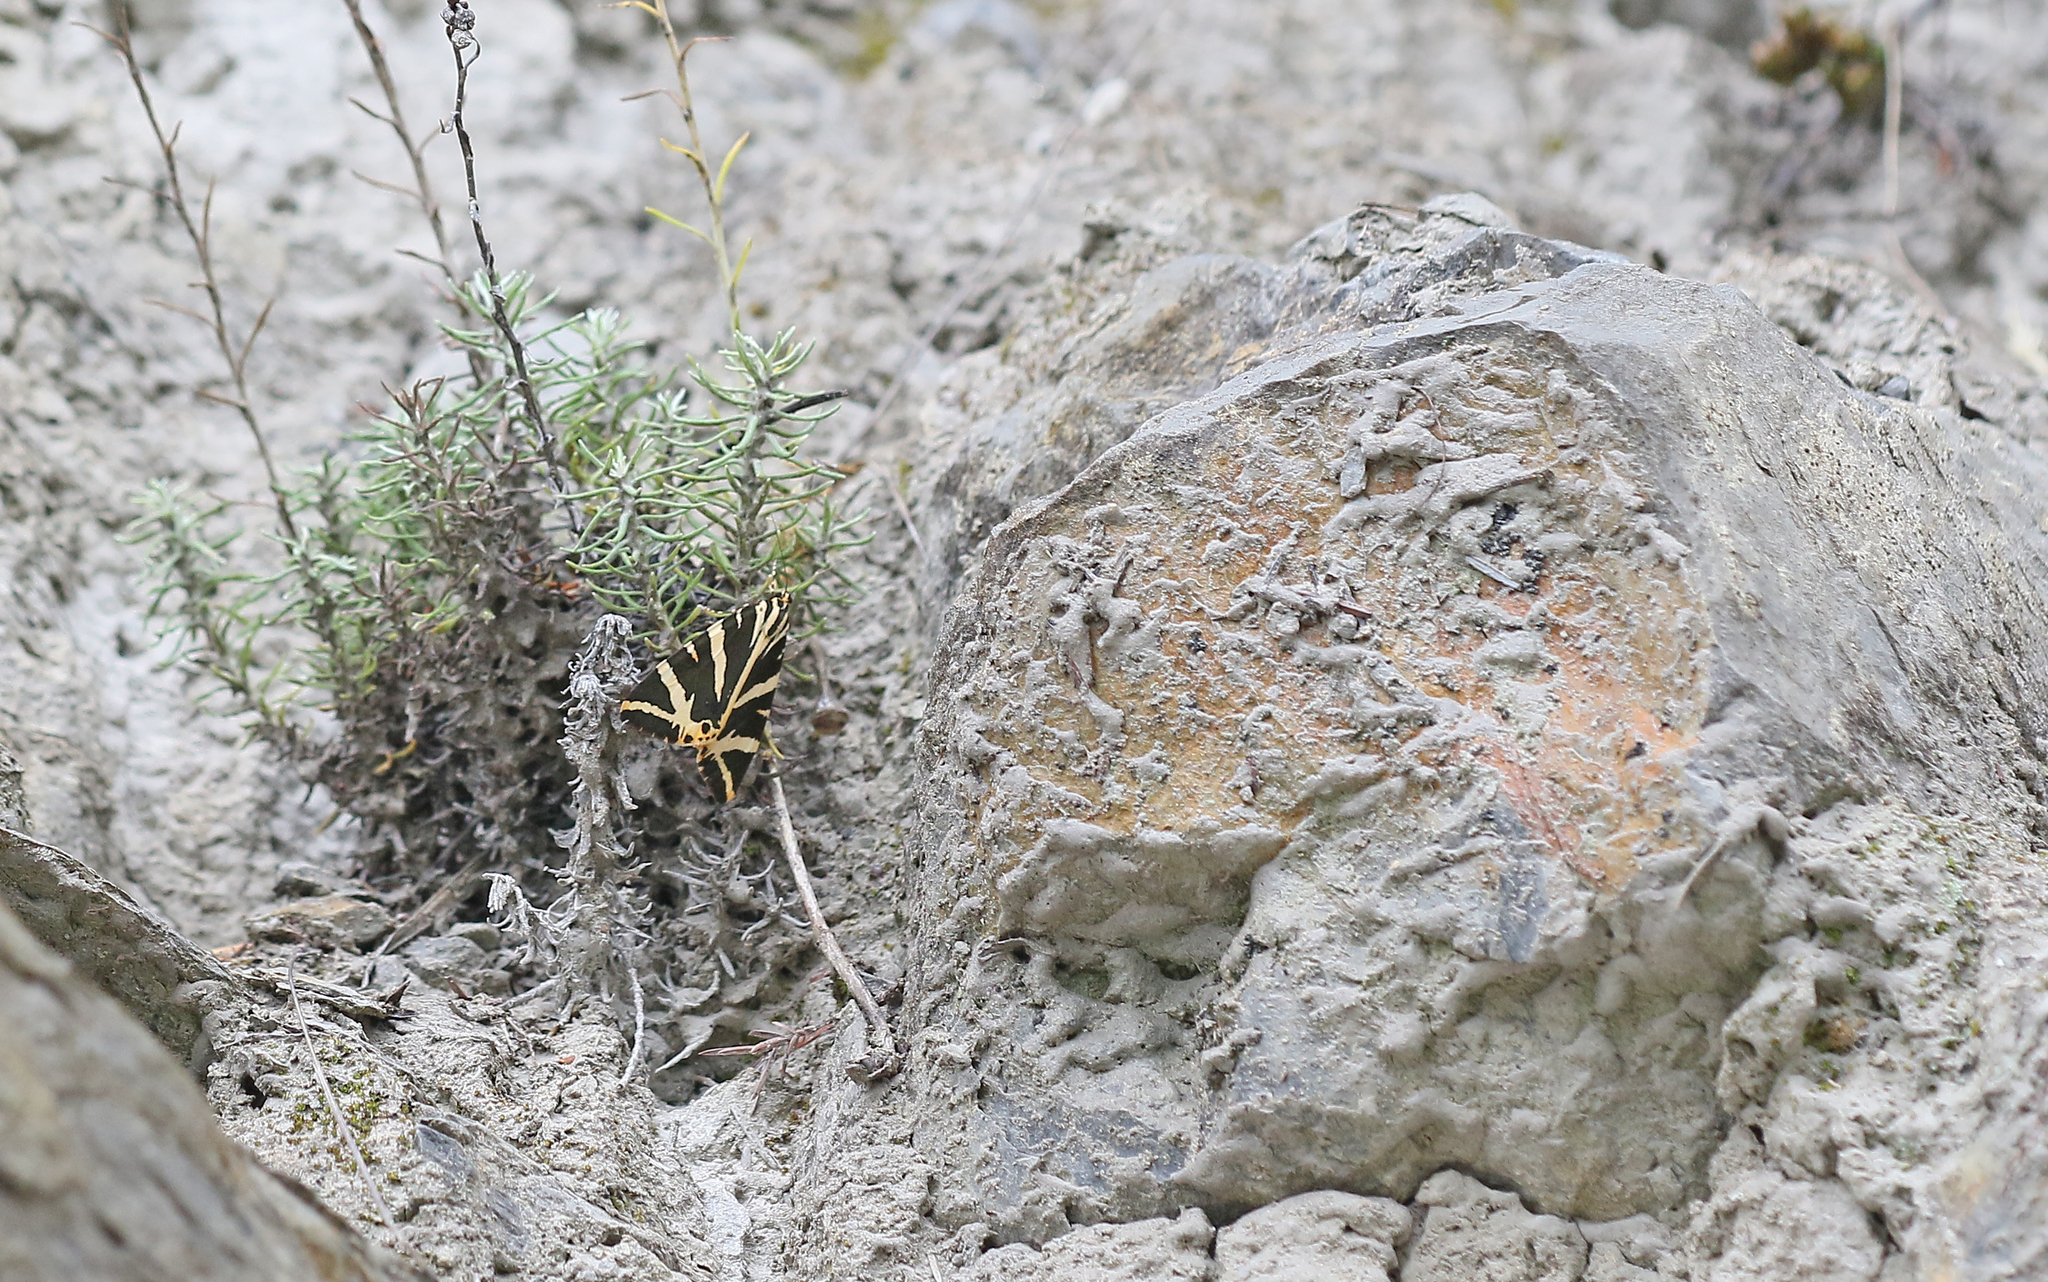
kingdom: Animalia
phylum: Arthropoda
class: Insecta
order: Lepidoptera
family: Erebidae
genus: Euplagia
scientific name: Euplagia quadripunctaria
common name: Jersey tiger
